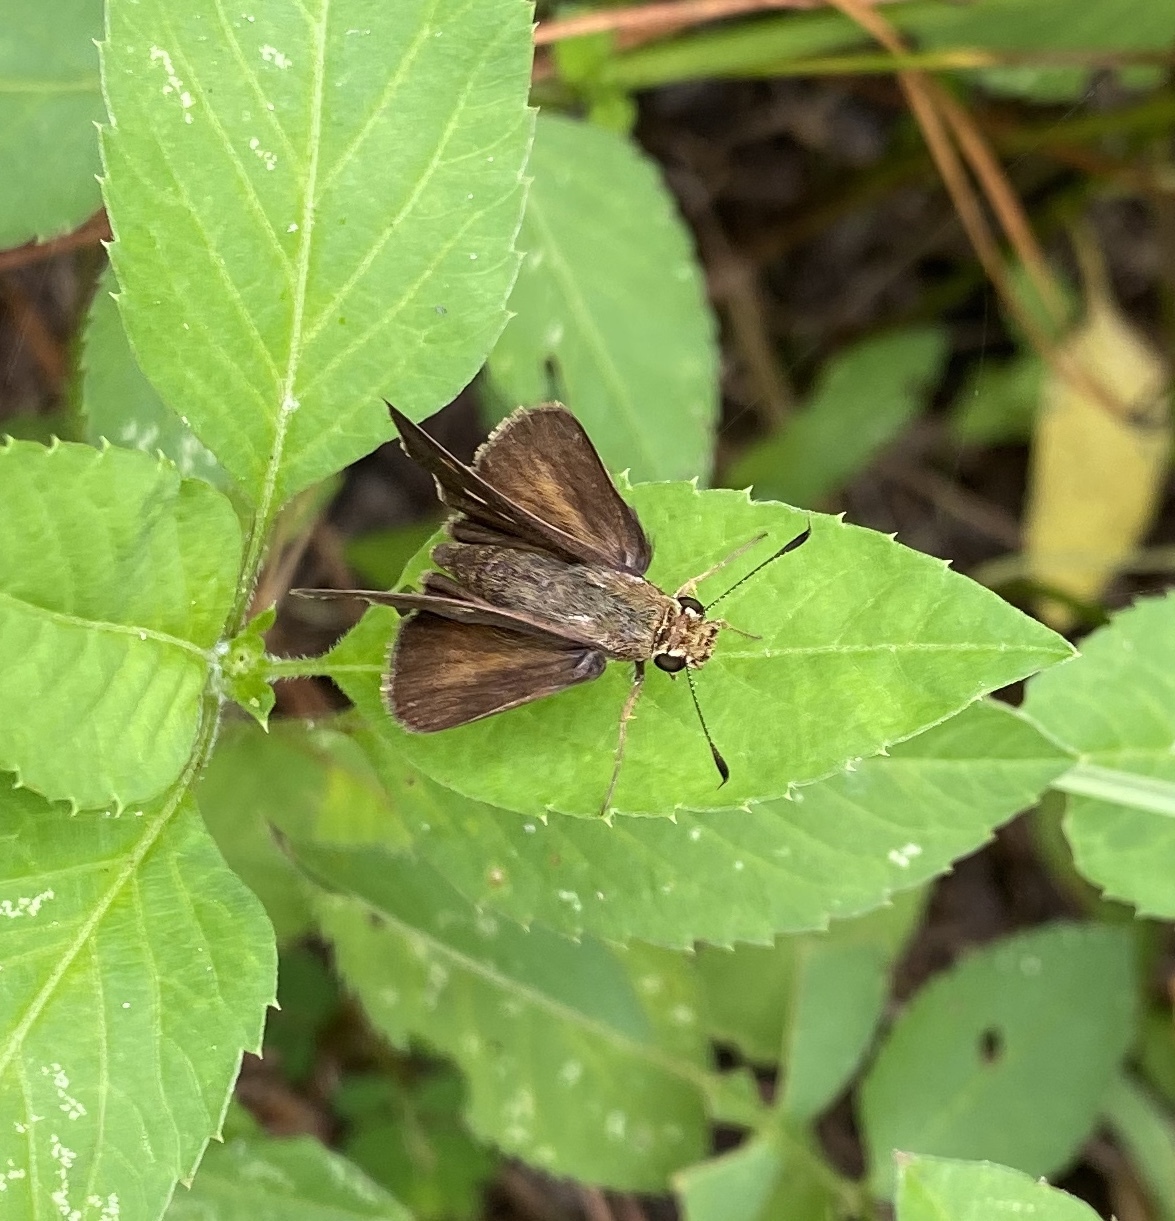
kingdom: Animalia
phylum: Arthropoda
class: Insecta
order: Lepidoptera
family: Hesperiidae
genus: Polites
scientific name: Polites egeremet
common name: Northern broken-dash
